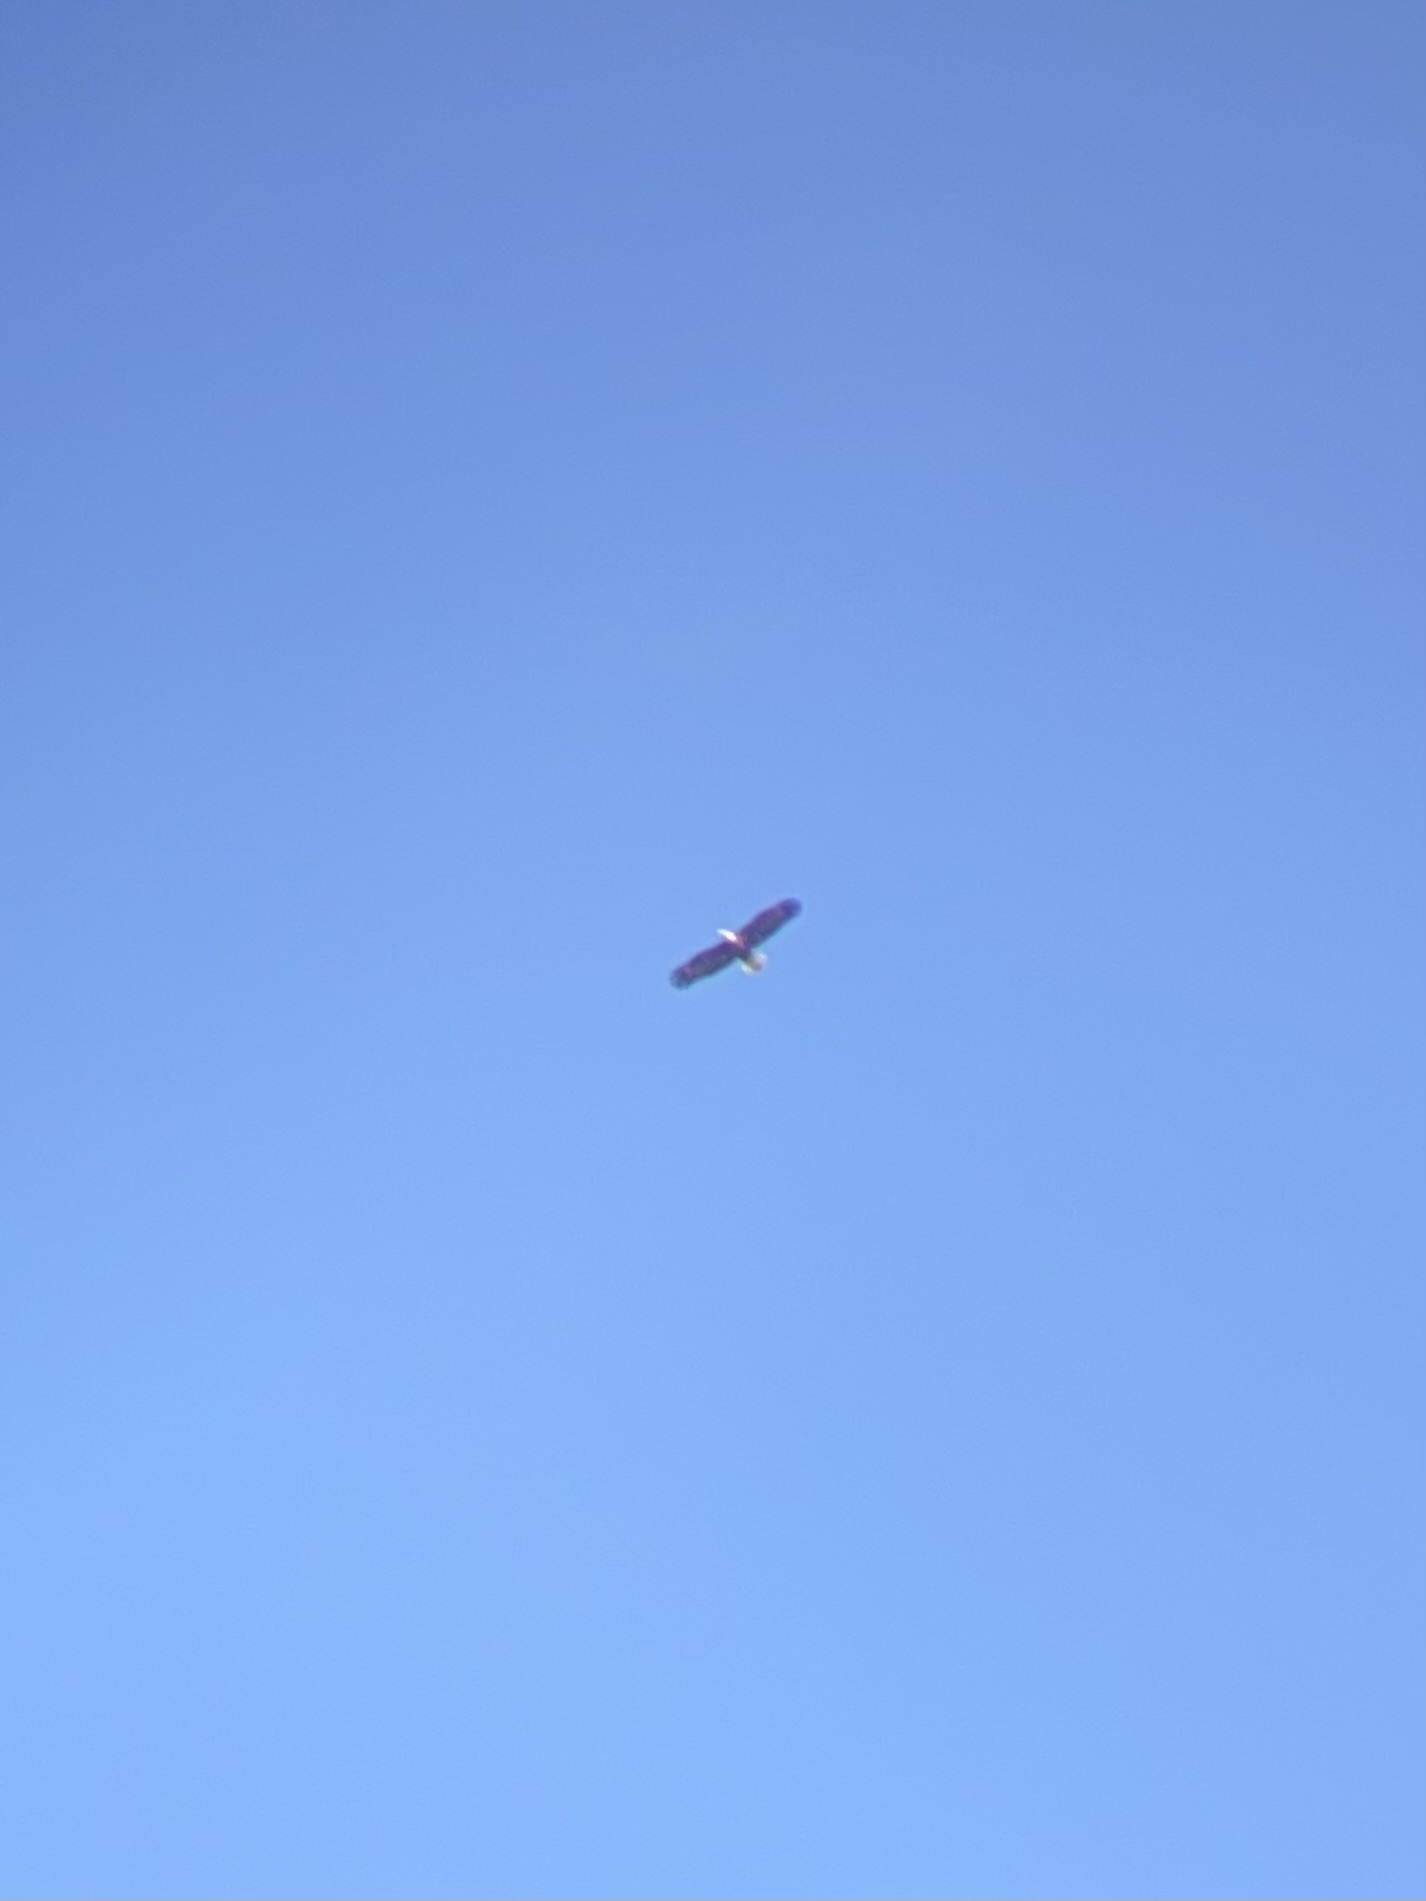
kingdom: Animalia
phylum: Chordata
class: Aves
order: Accipitriformes
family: Accipitridae
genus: Haliaeetus
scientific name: Haliaeetus leucocephalus
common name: Bald eagle
